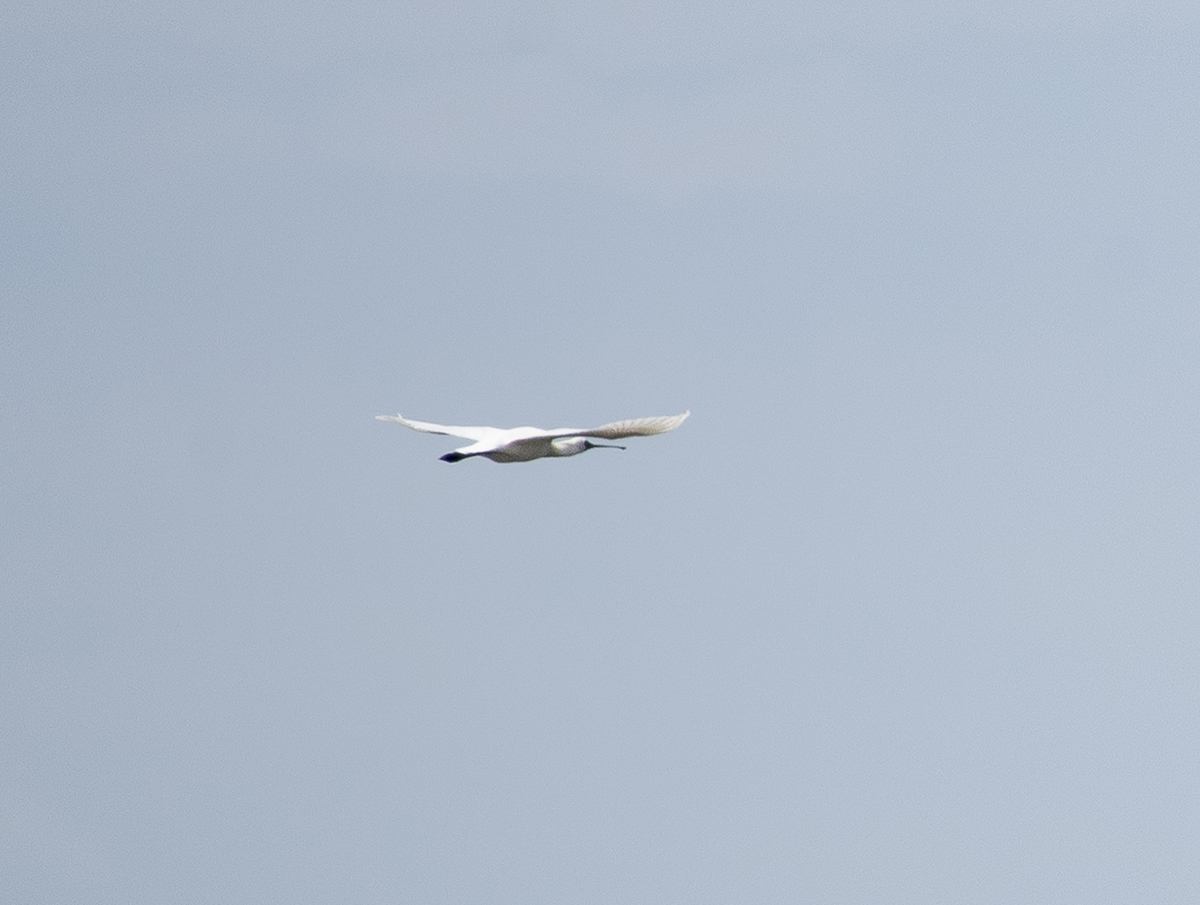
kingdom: Animalia
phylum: Chordata
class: Aves
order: Pelecaniformes
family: Threskiornithidae
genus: Platalea
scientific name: Platalea minor
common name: Black-faced spoonbill
